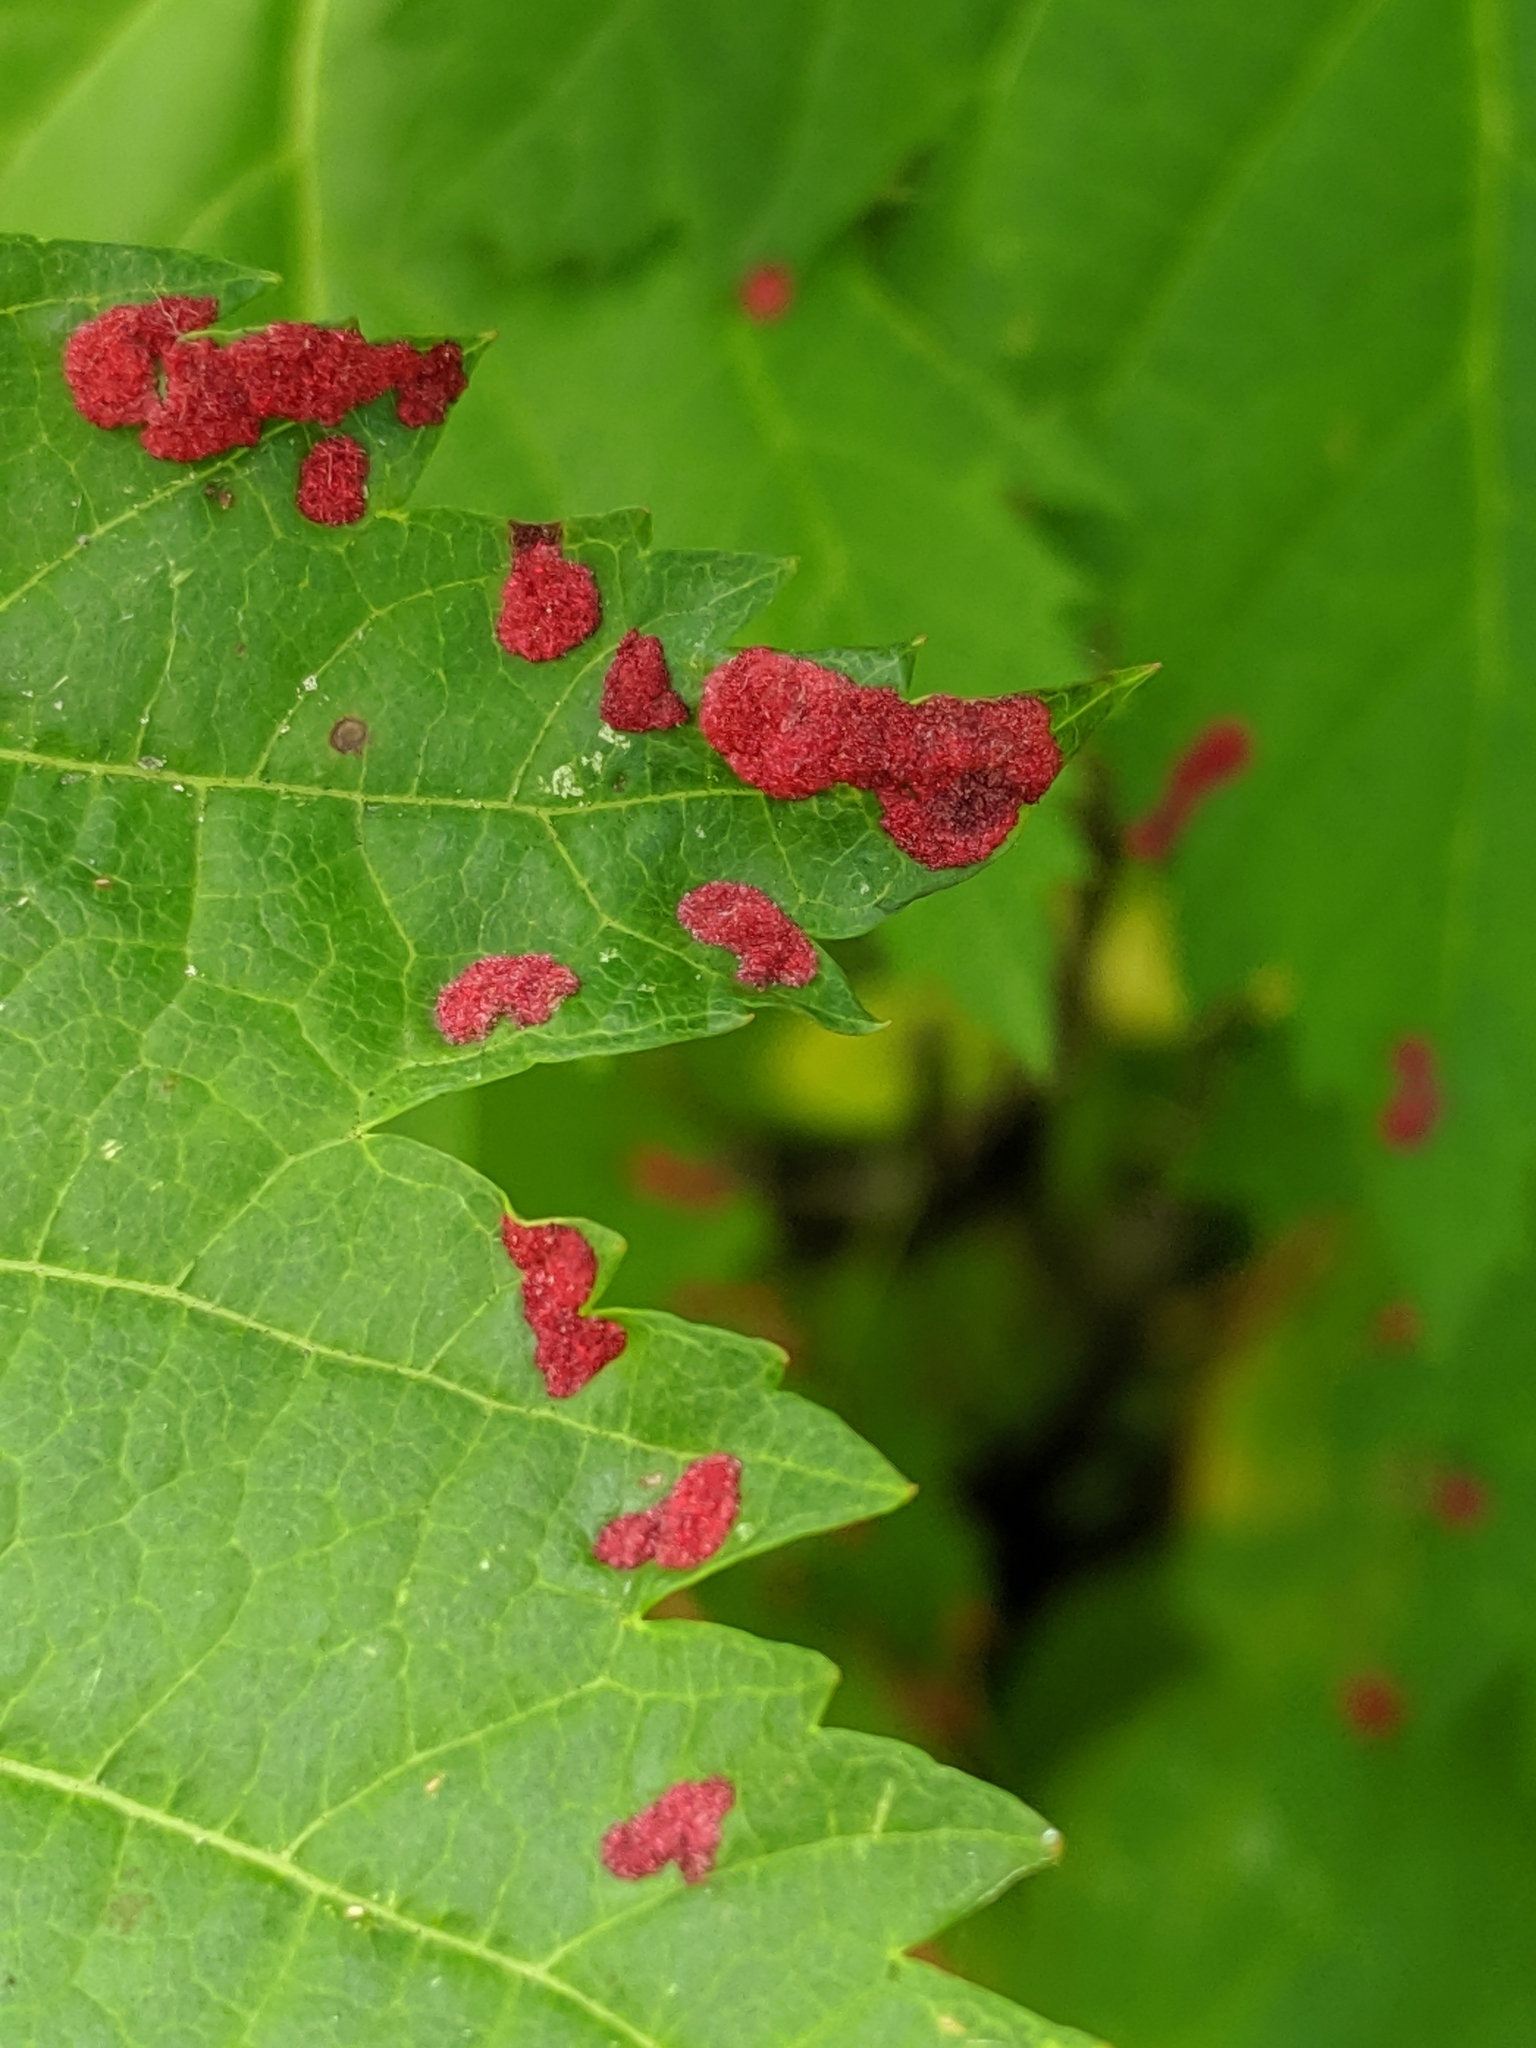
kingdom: Animalia
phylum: Arthropoda
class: Arachnida
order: Trombidiformes
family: Eriophyidae
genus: Aceria
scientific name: Aceria
